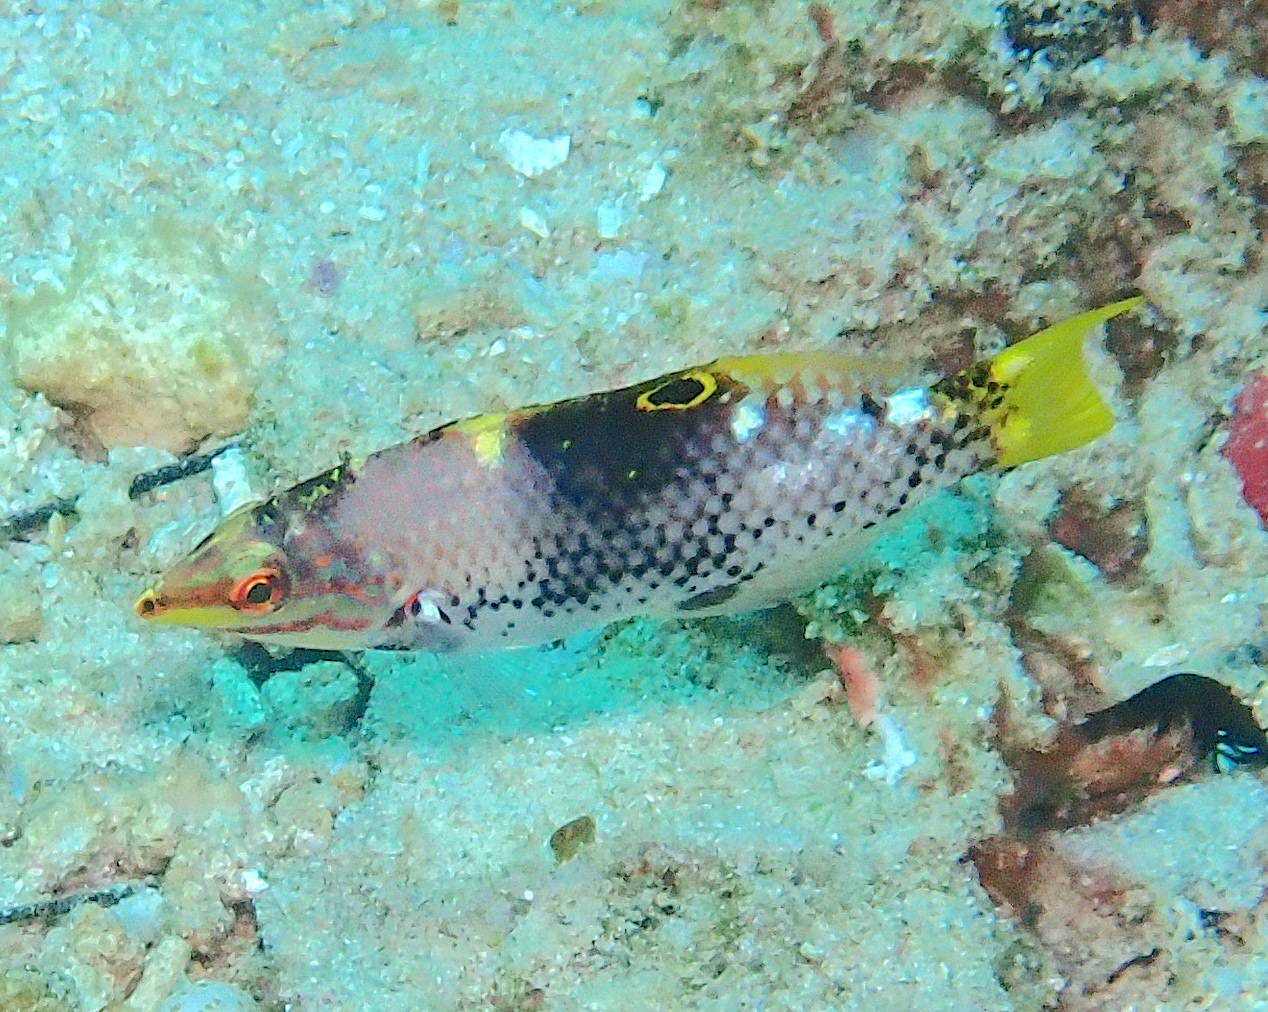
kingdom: Animalia
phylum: Chordata
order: Perciformes
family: Labridae
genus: Halichoeres
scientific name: Halichoeres hortulanus
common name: Checkerboard wrasse
